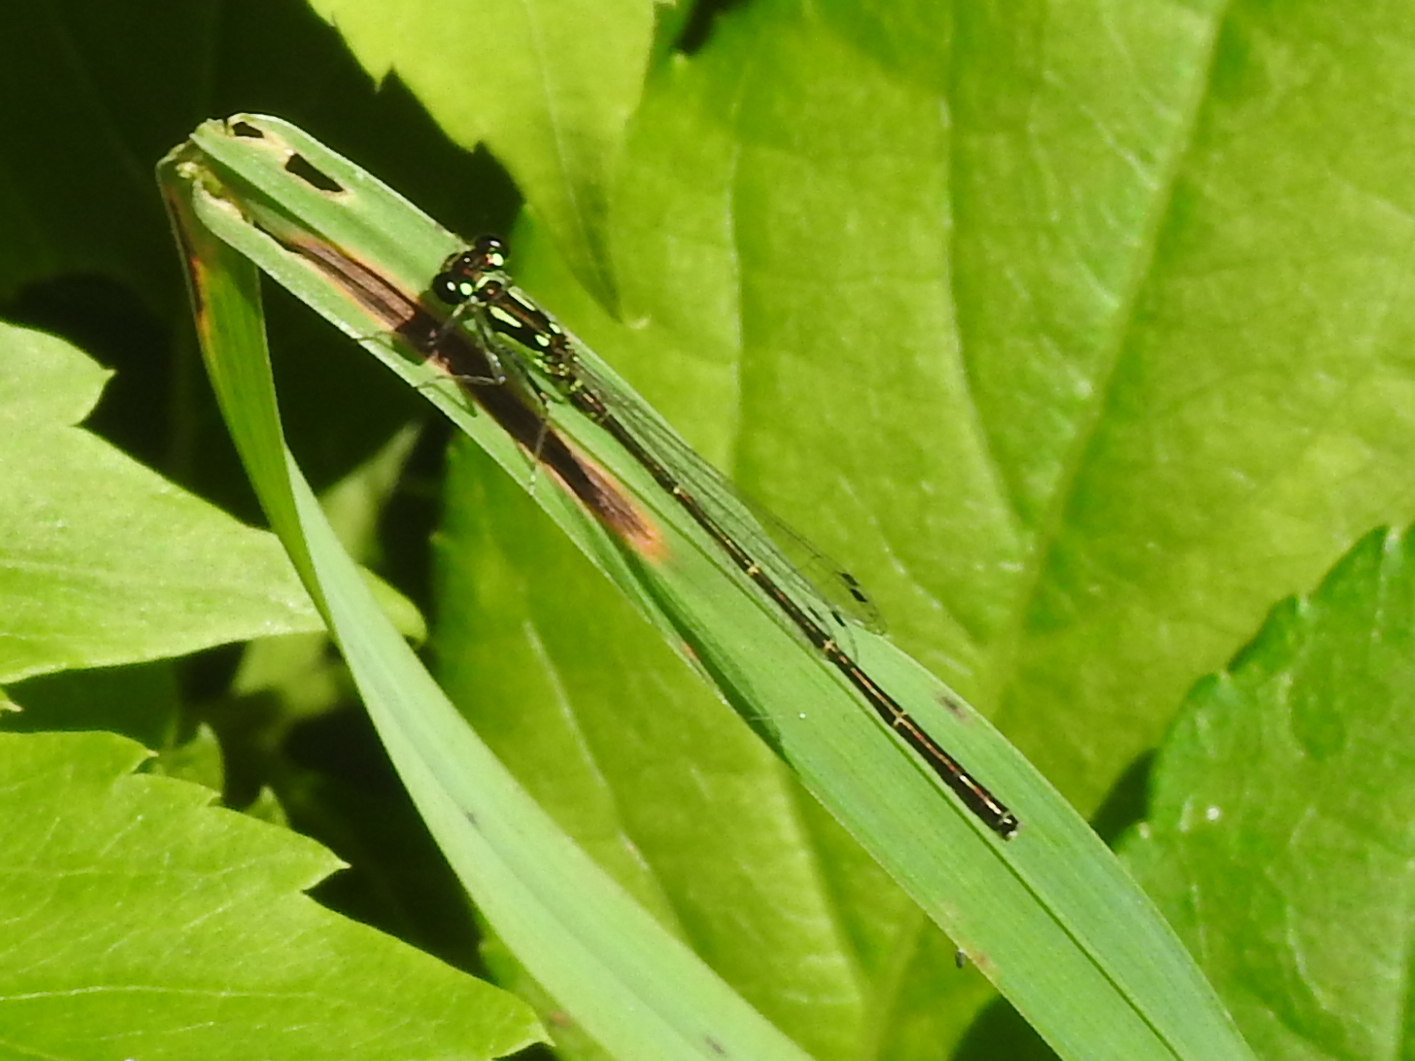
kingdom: Animalia
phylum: Arthropoda
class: Insecta
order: Odonata
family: Coenagrionidae
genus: Ischnura
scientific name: Ischnura posita
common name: Fragile forktail
